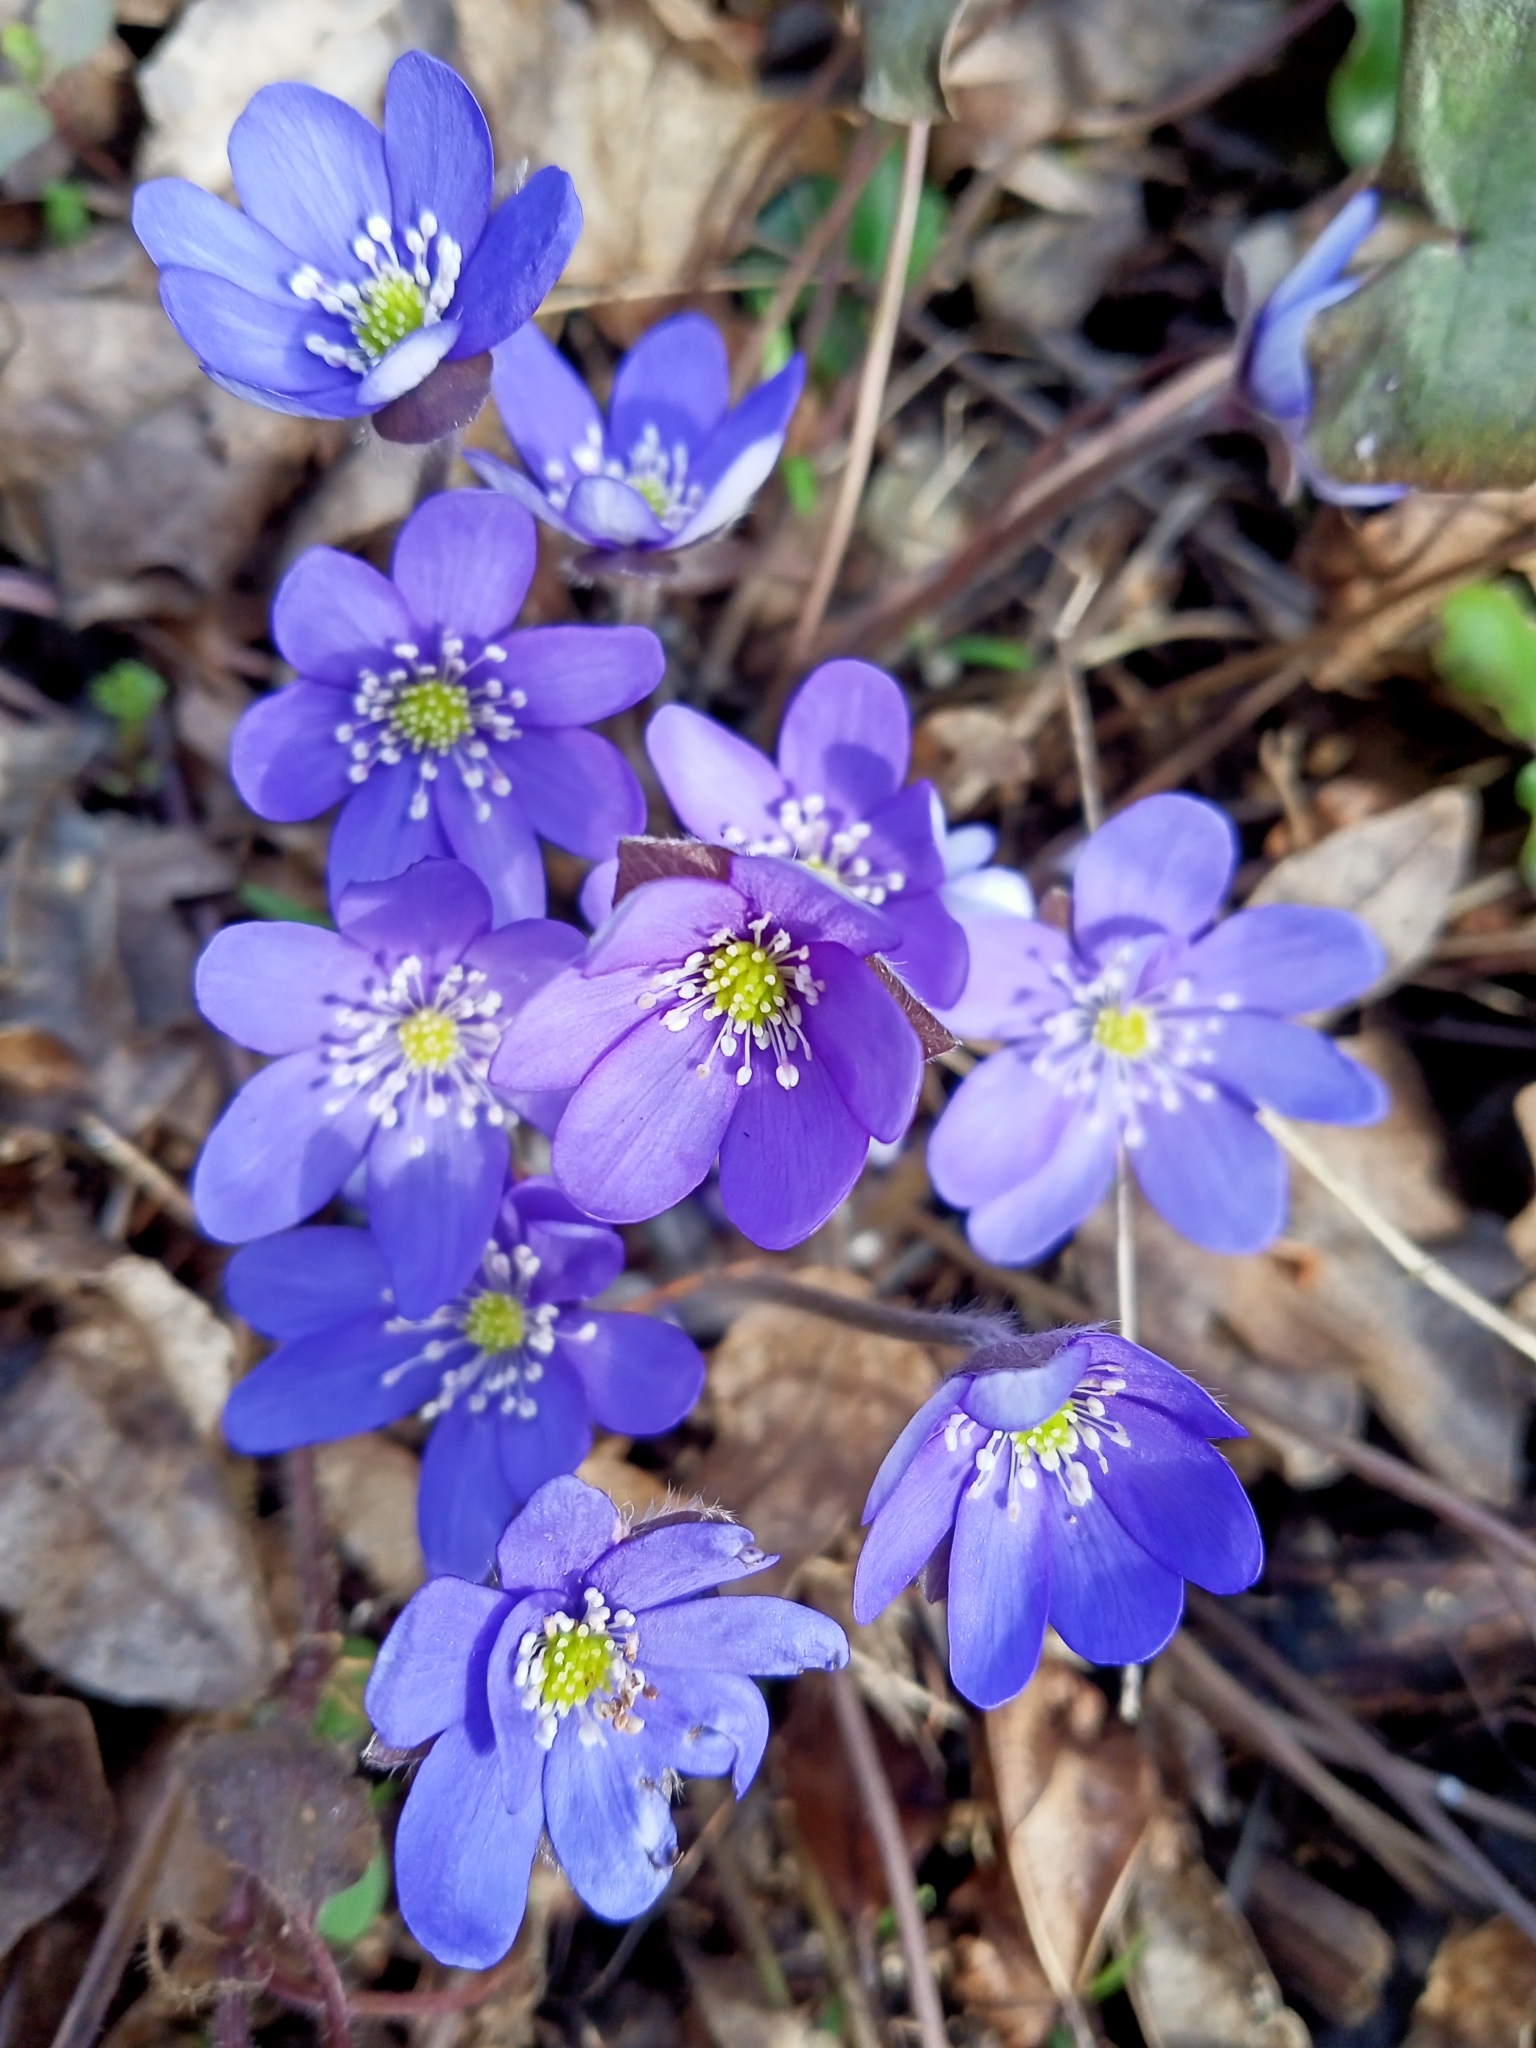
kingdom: Plantae
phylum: Tracheophyta
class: Magnoliopsida
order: Ranunculales
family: Ranunculaceae
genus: Hepatica
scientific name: Hepatica nobilis
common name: Liverleaf
